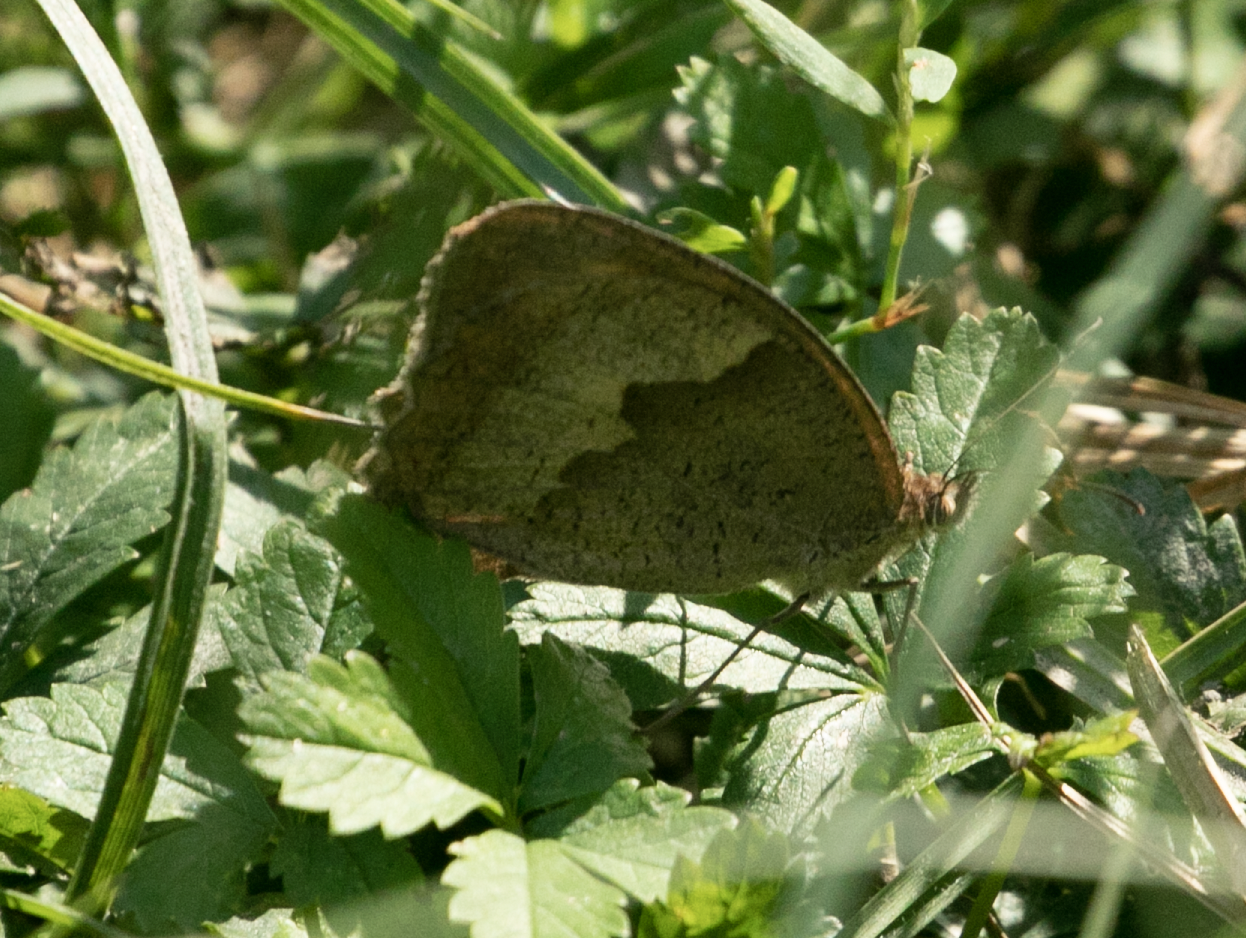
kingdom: Animalia
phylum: Arthropoda
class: Insecta
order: Lepidoptera
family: Nymphalidae
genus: Maniola
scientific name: Maniola jurtina
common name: Meadow brown
